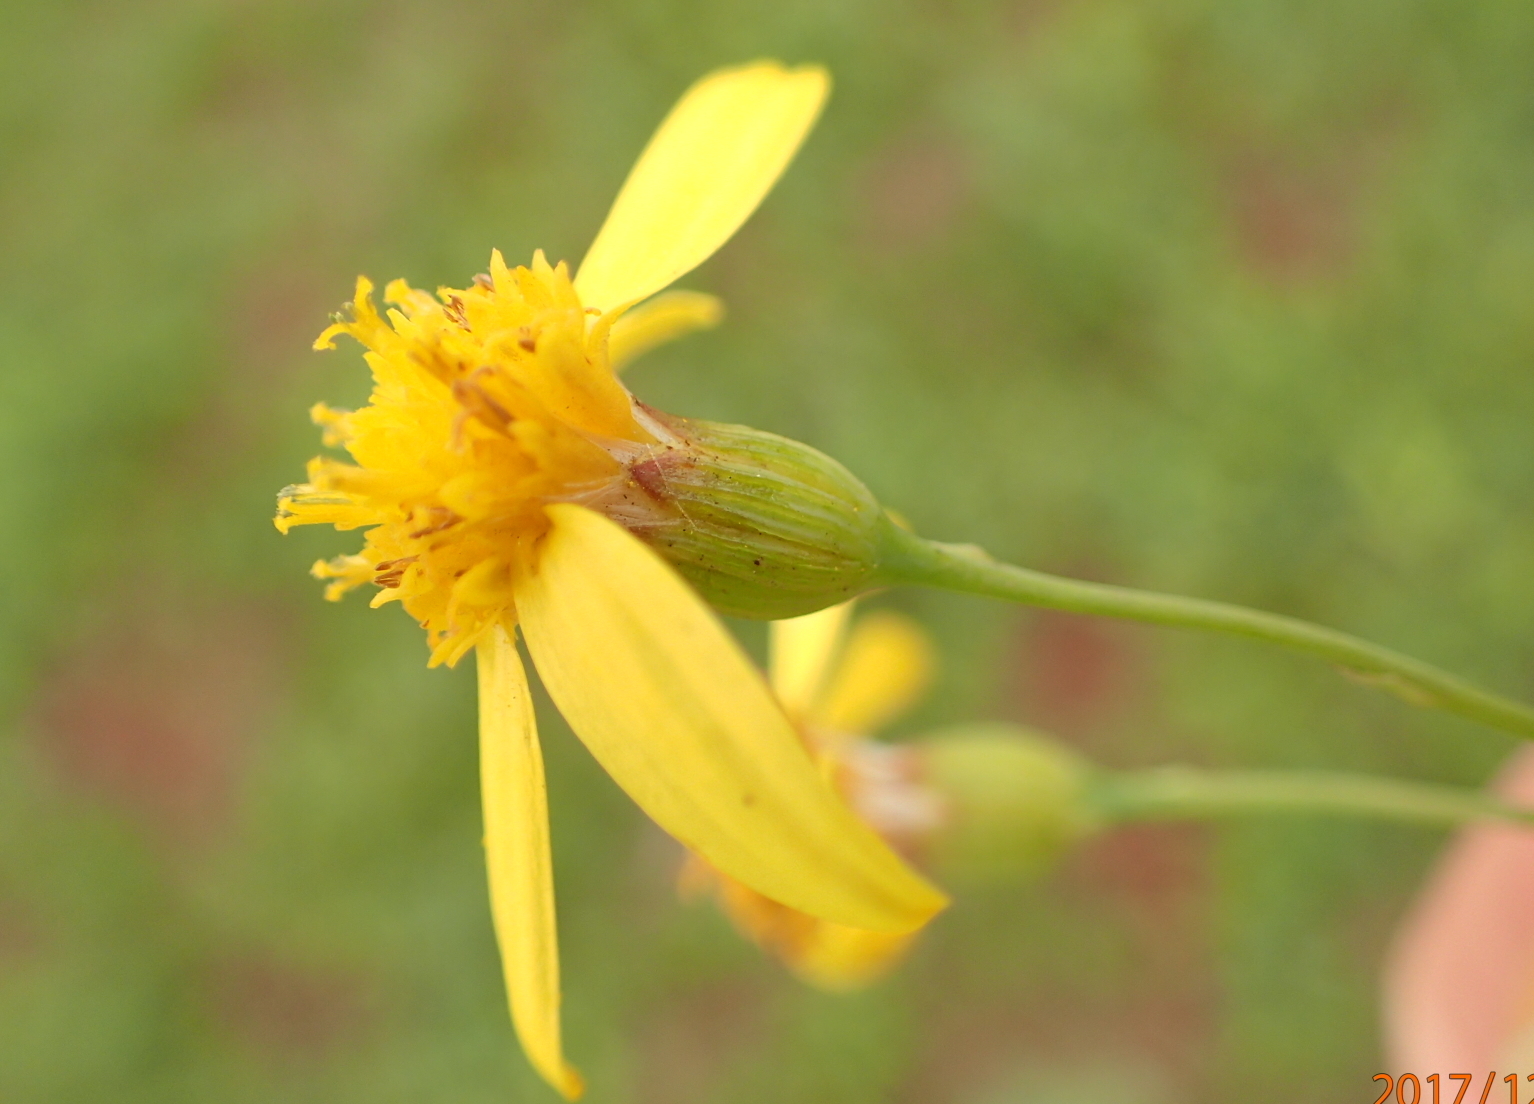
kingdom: Plantae
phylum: Tracheophyta
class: Magnoliopsida
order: Asterales
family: Asteraceae
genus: Senecio
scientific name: Senecio bupleuroides
